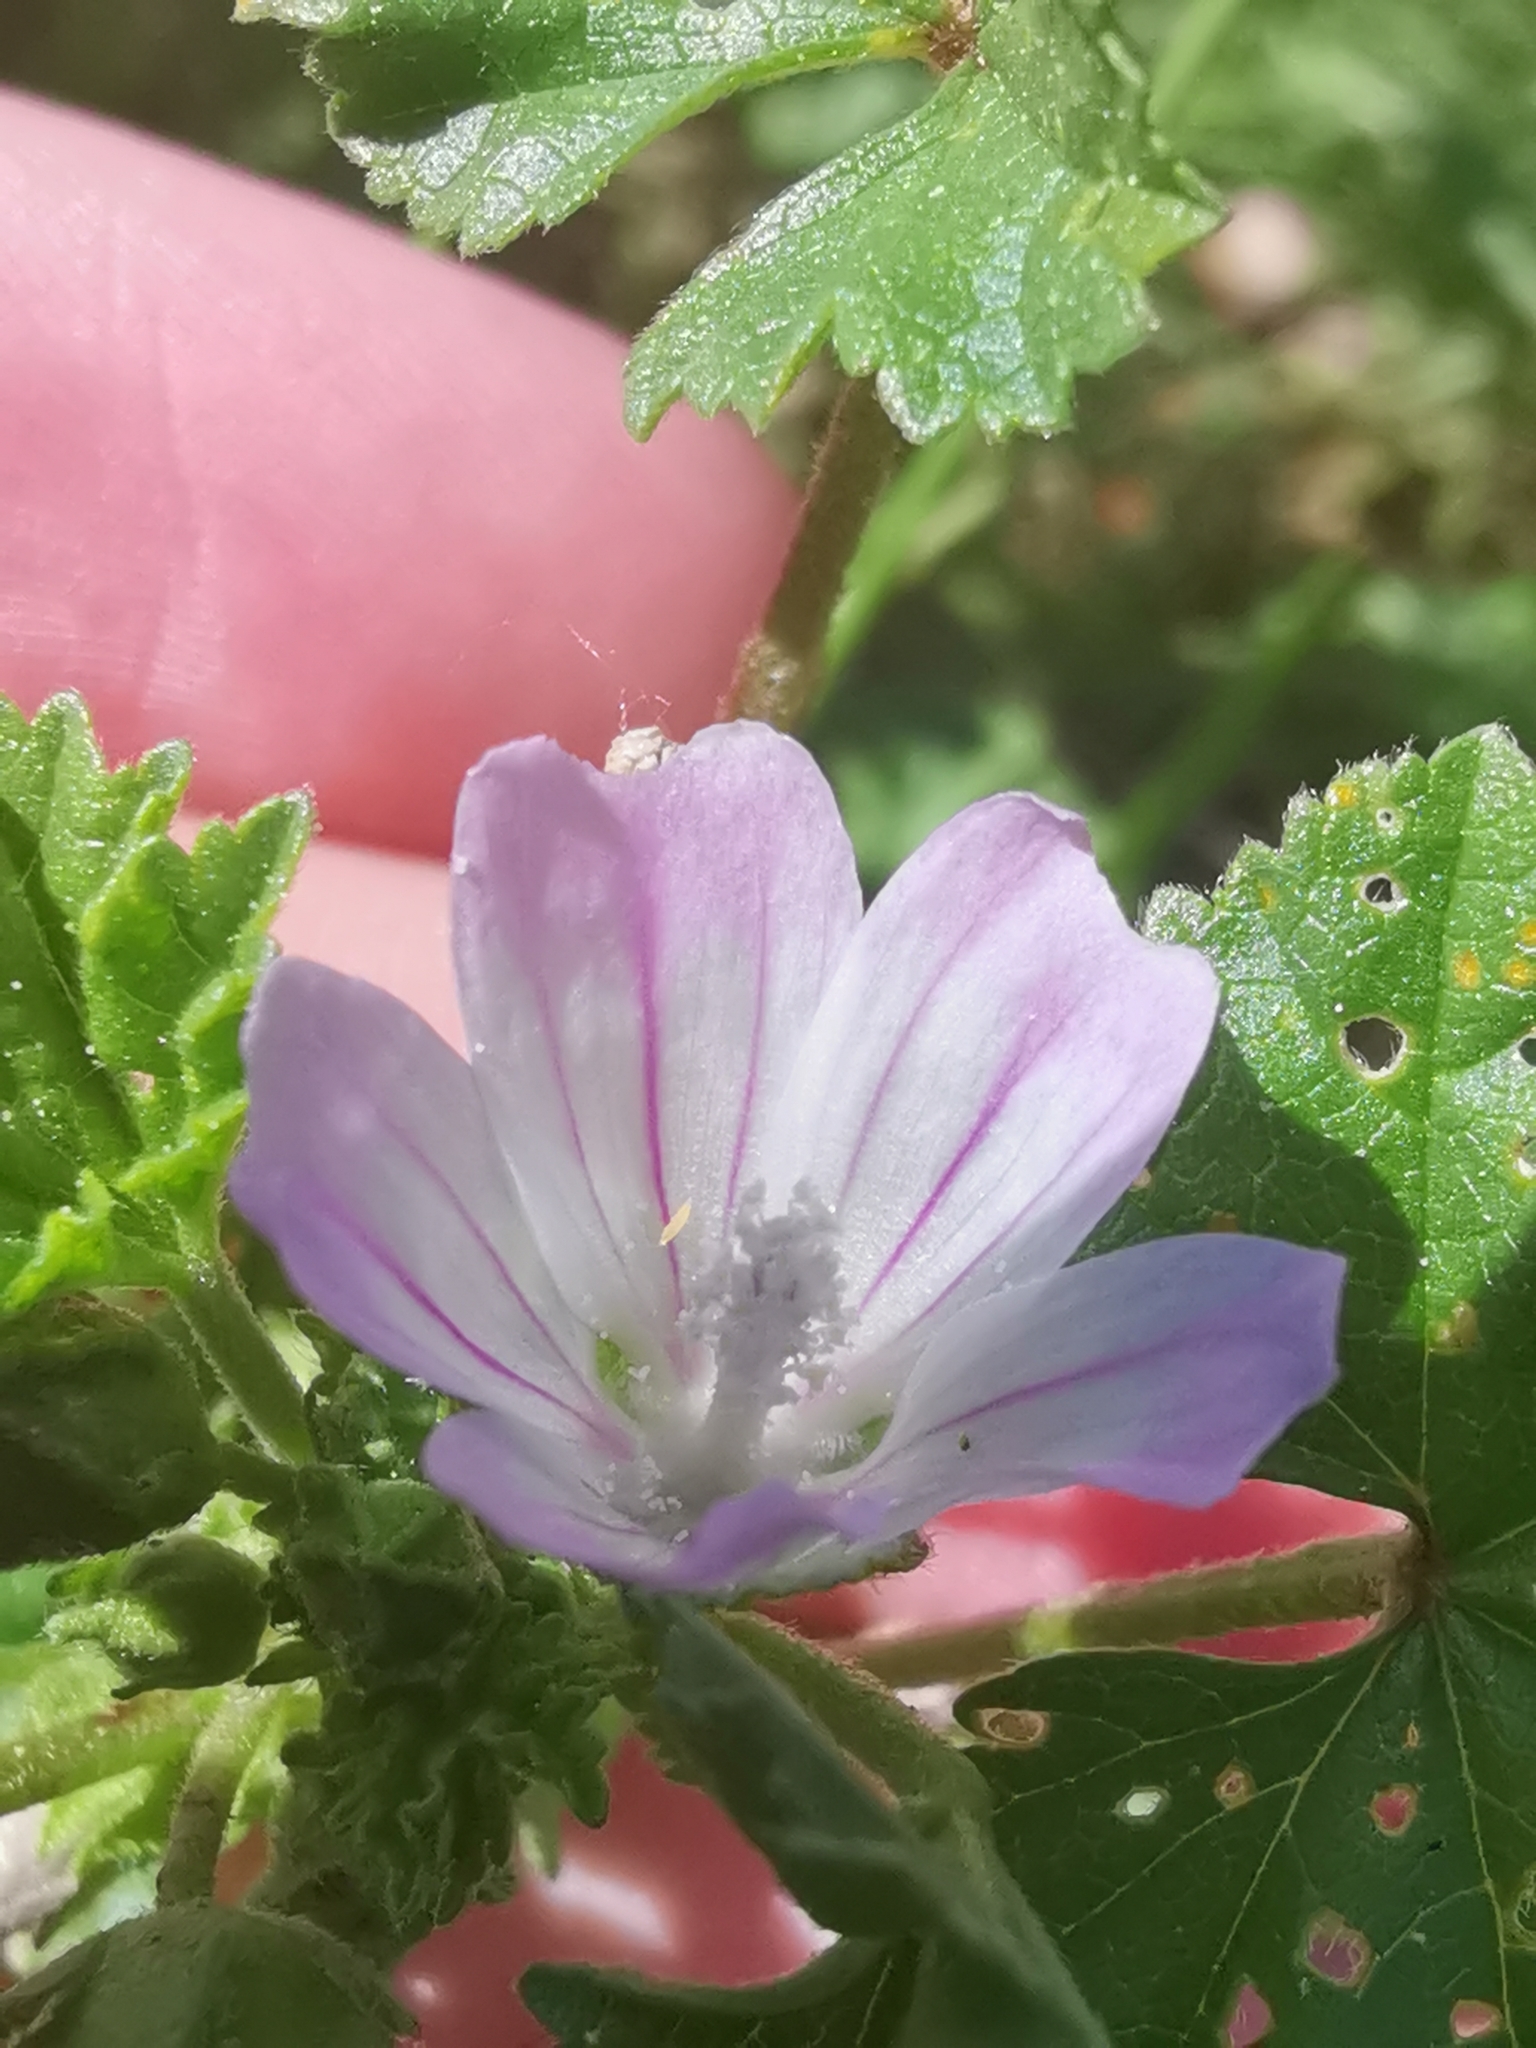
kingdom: Plantae
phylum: Tracheophyta
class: Magnoliopsida
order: Malvales
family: Malvaceae
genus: Malva
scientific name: Malva neglecta
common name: Common mallow
